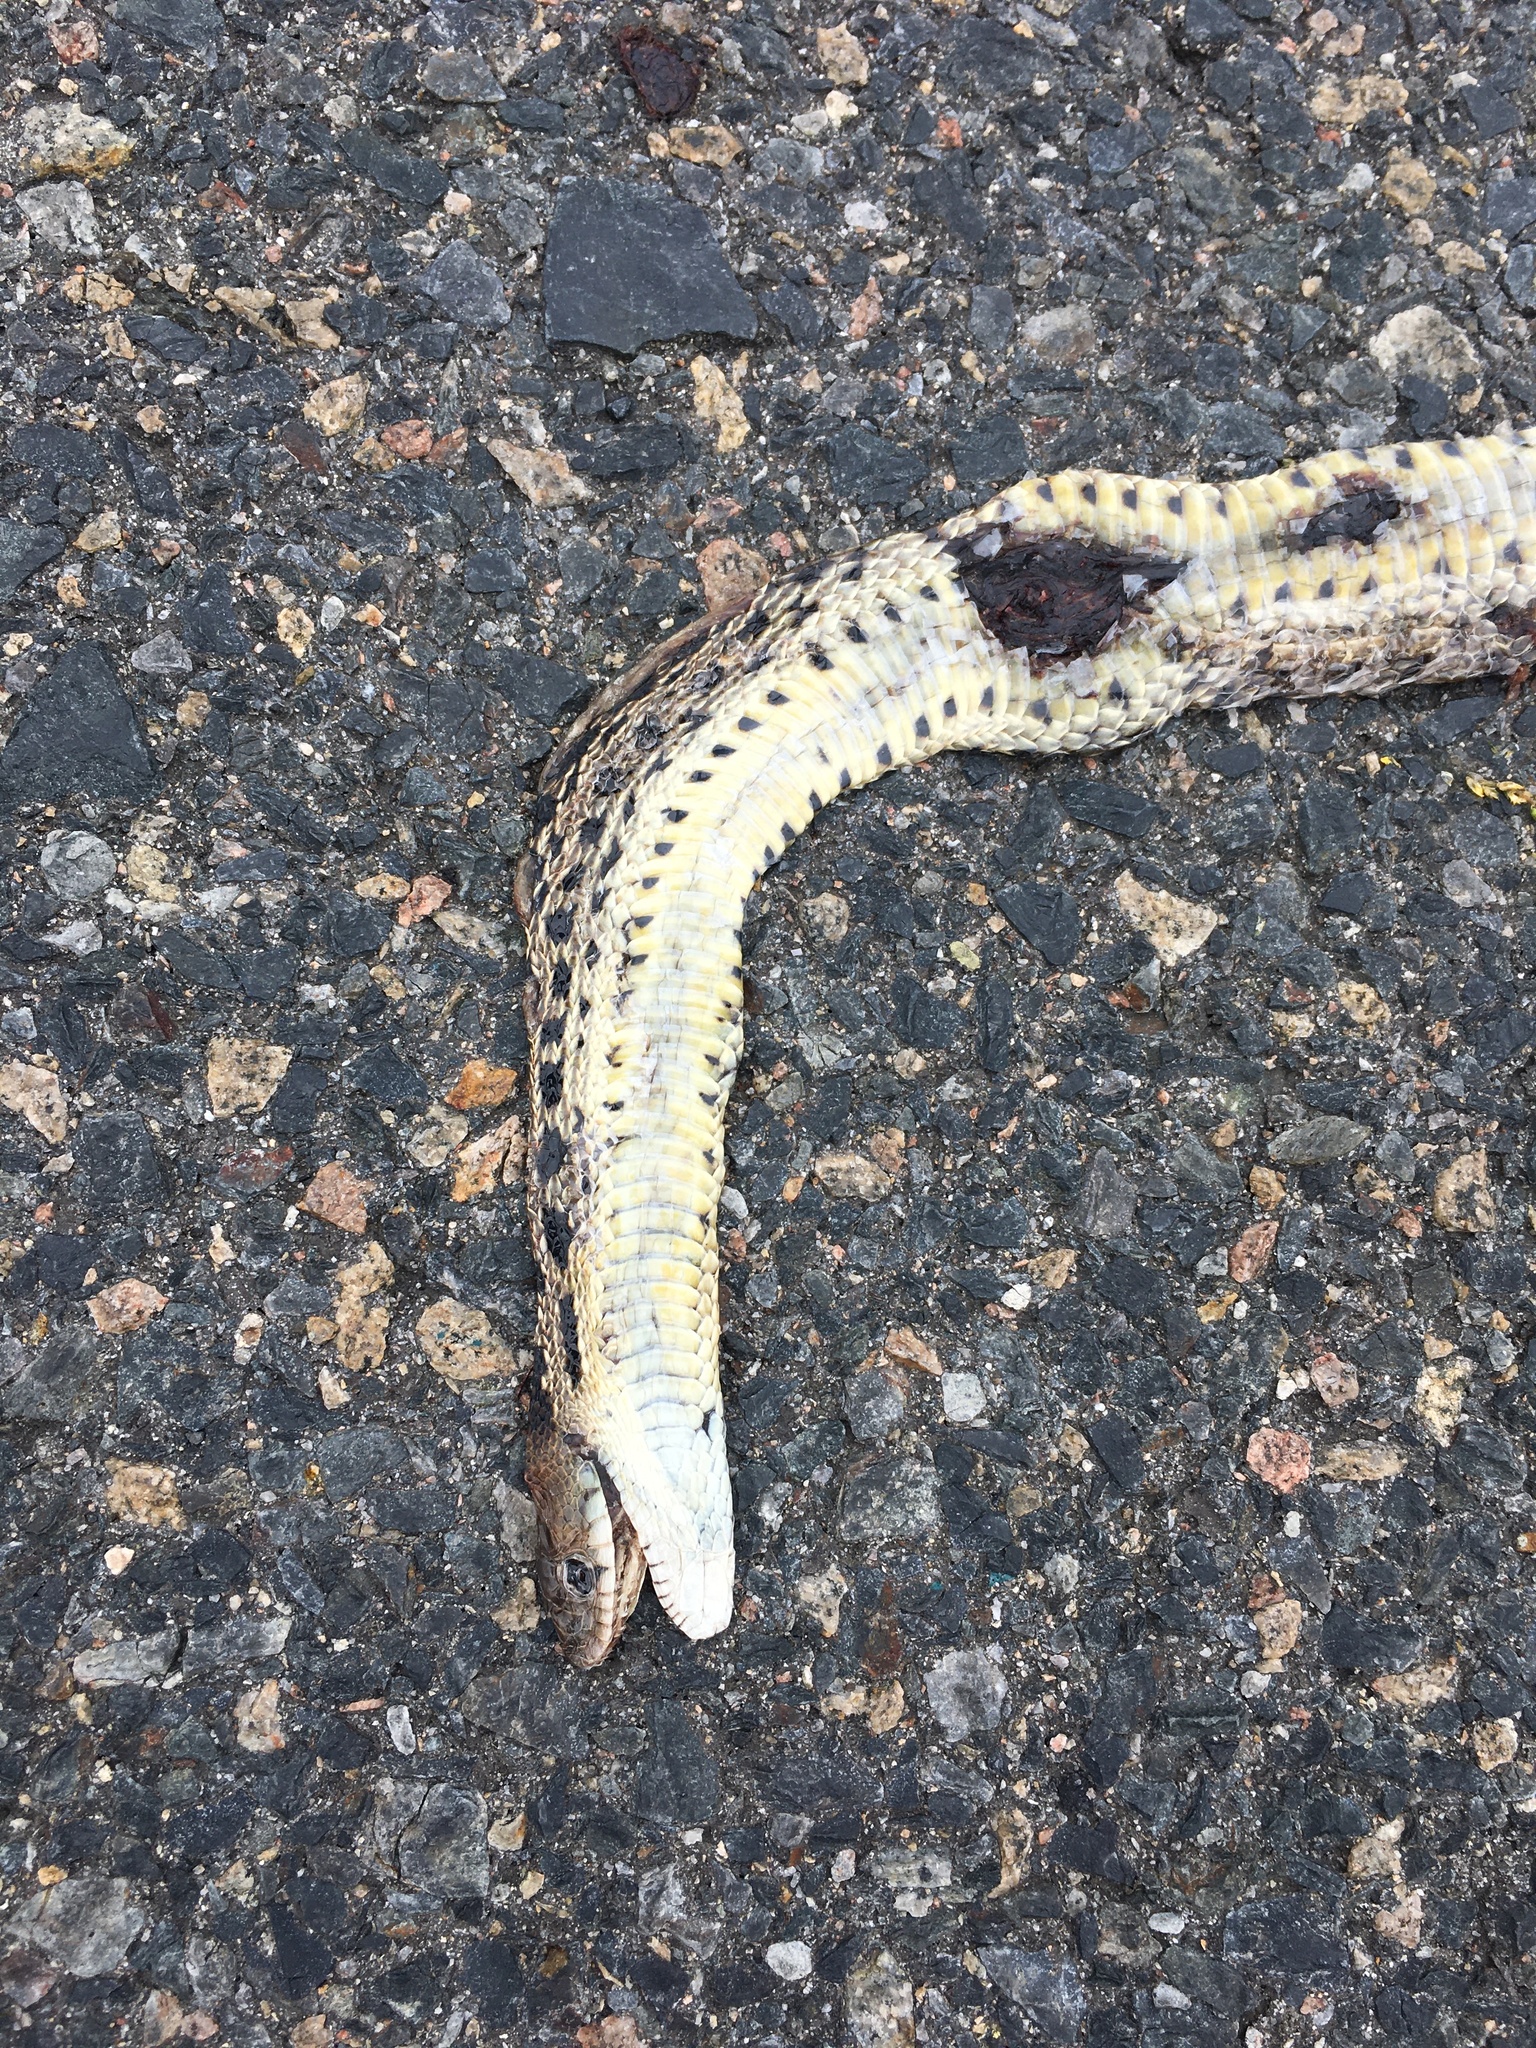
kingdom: Animalia
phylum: Chordata
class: Squamata
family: Colubridae
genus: Pituophis
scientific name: Pituophis catenifer
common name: Gopher snake
